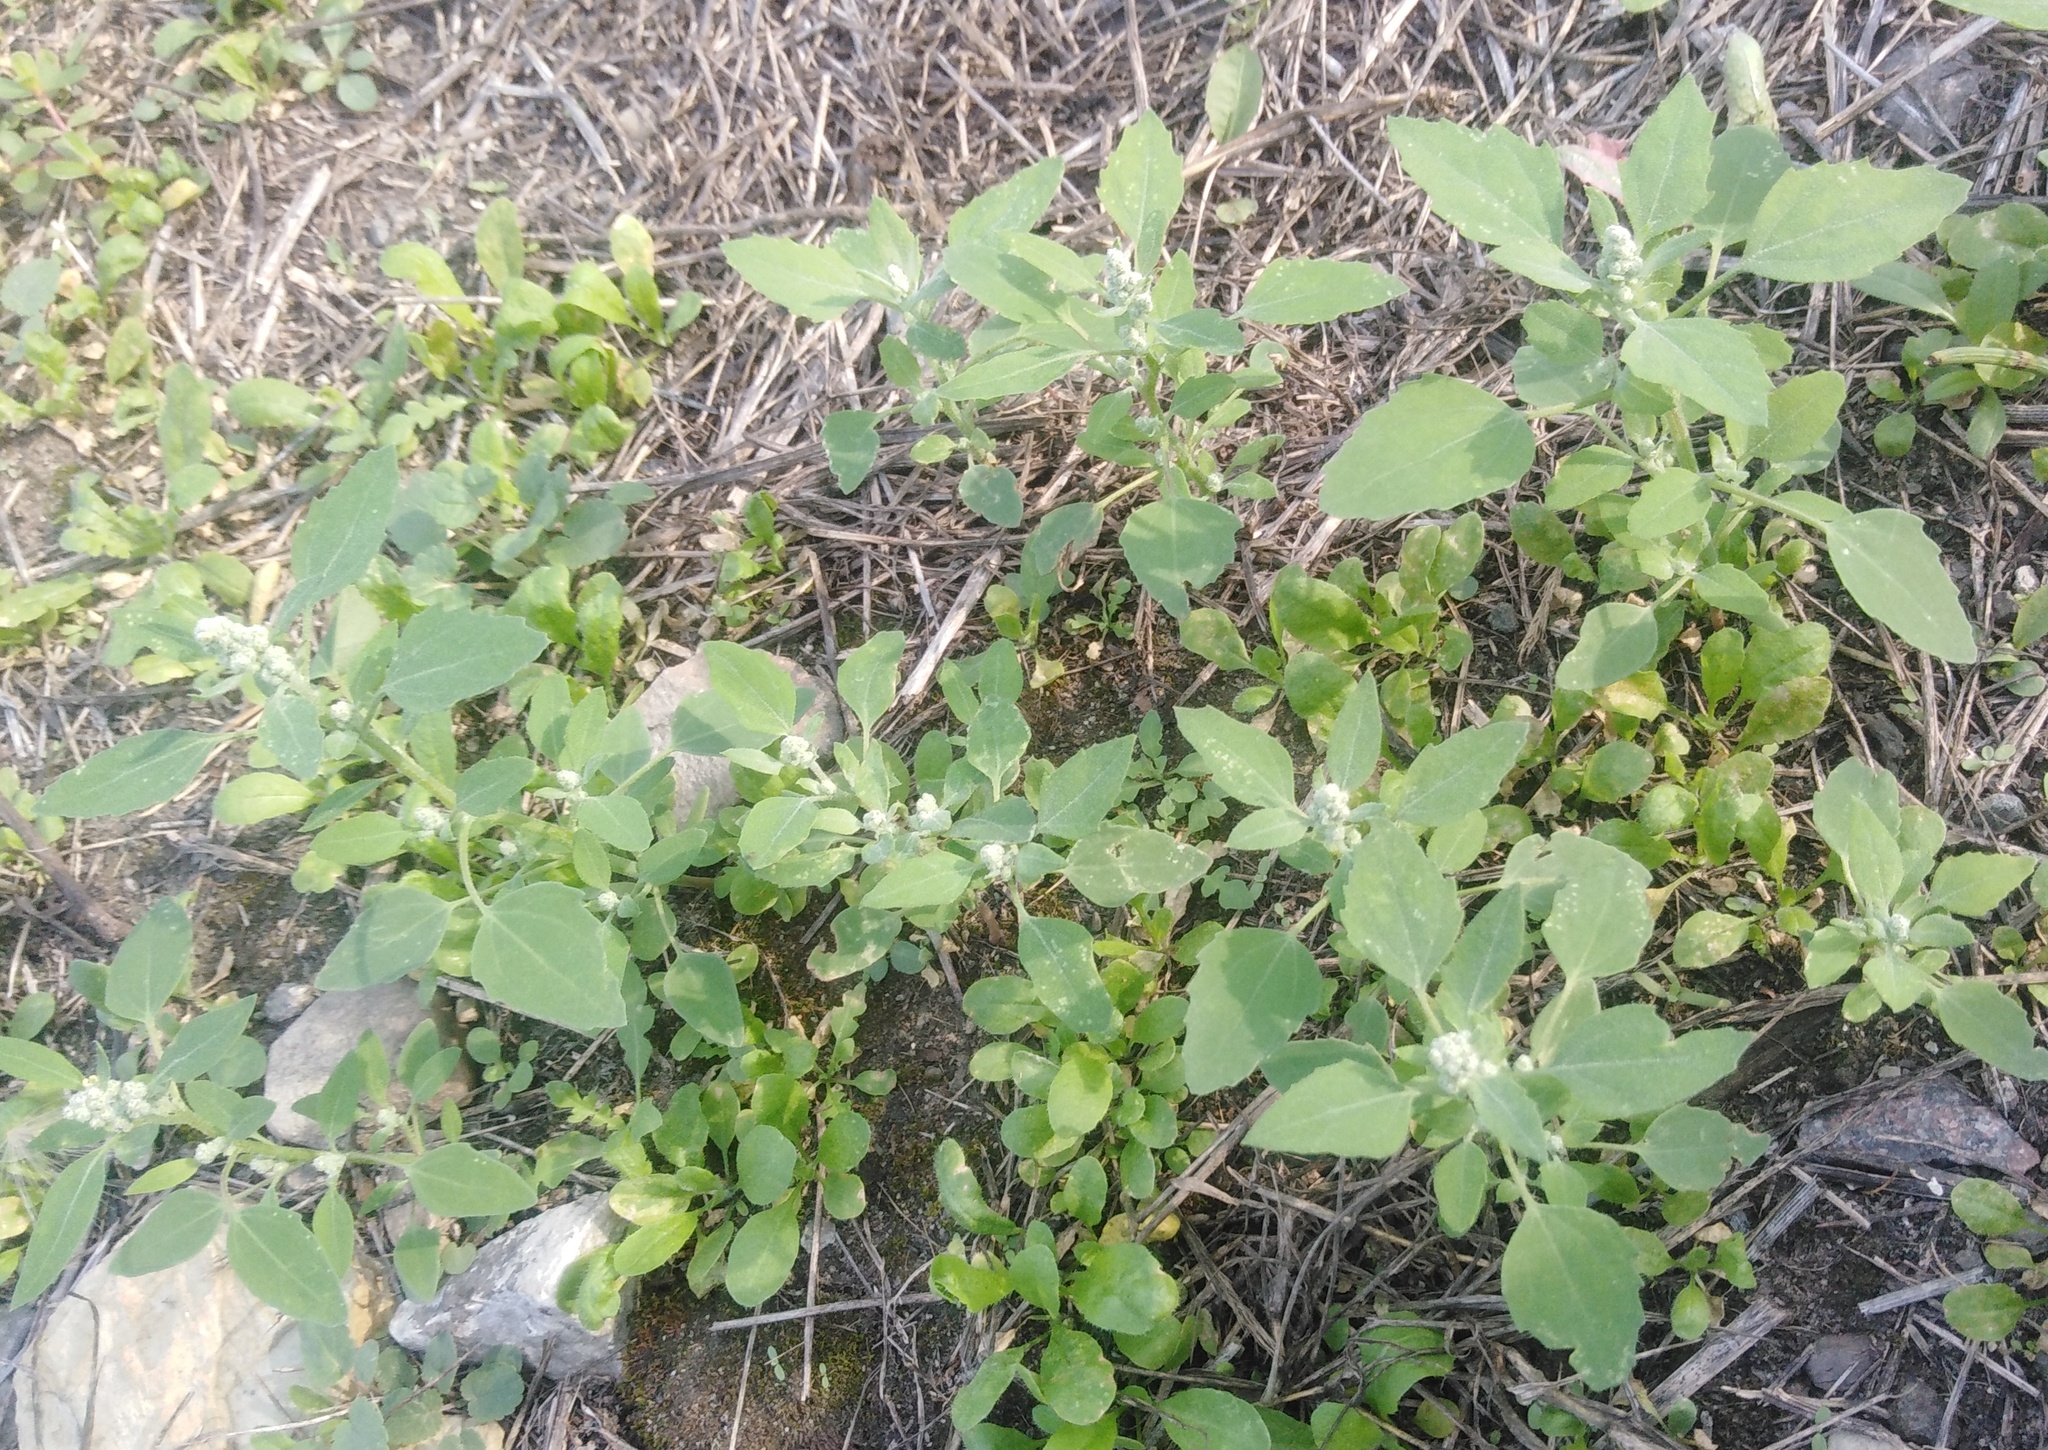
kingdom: Plantae
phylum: Tracheophyta
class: Magnoliopsida
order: Caryophyllales
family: Amaranthaceae
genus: Chenopodium
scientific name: Chenopodium album
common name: Fat-hen
